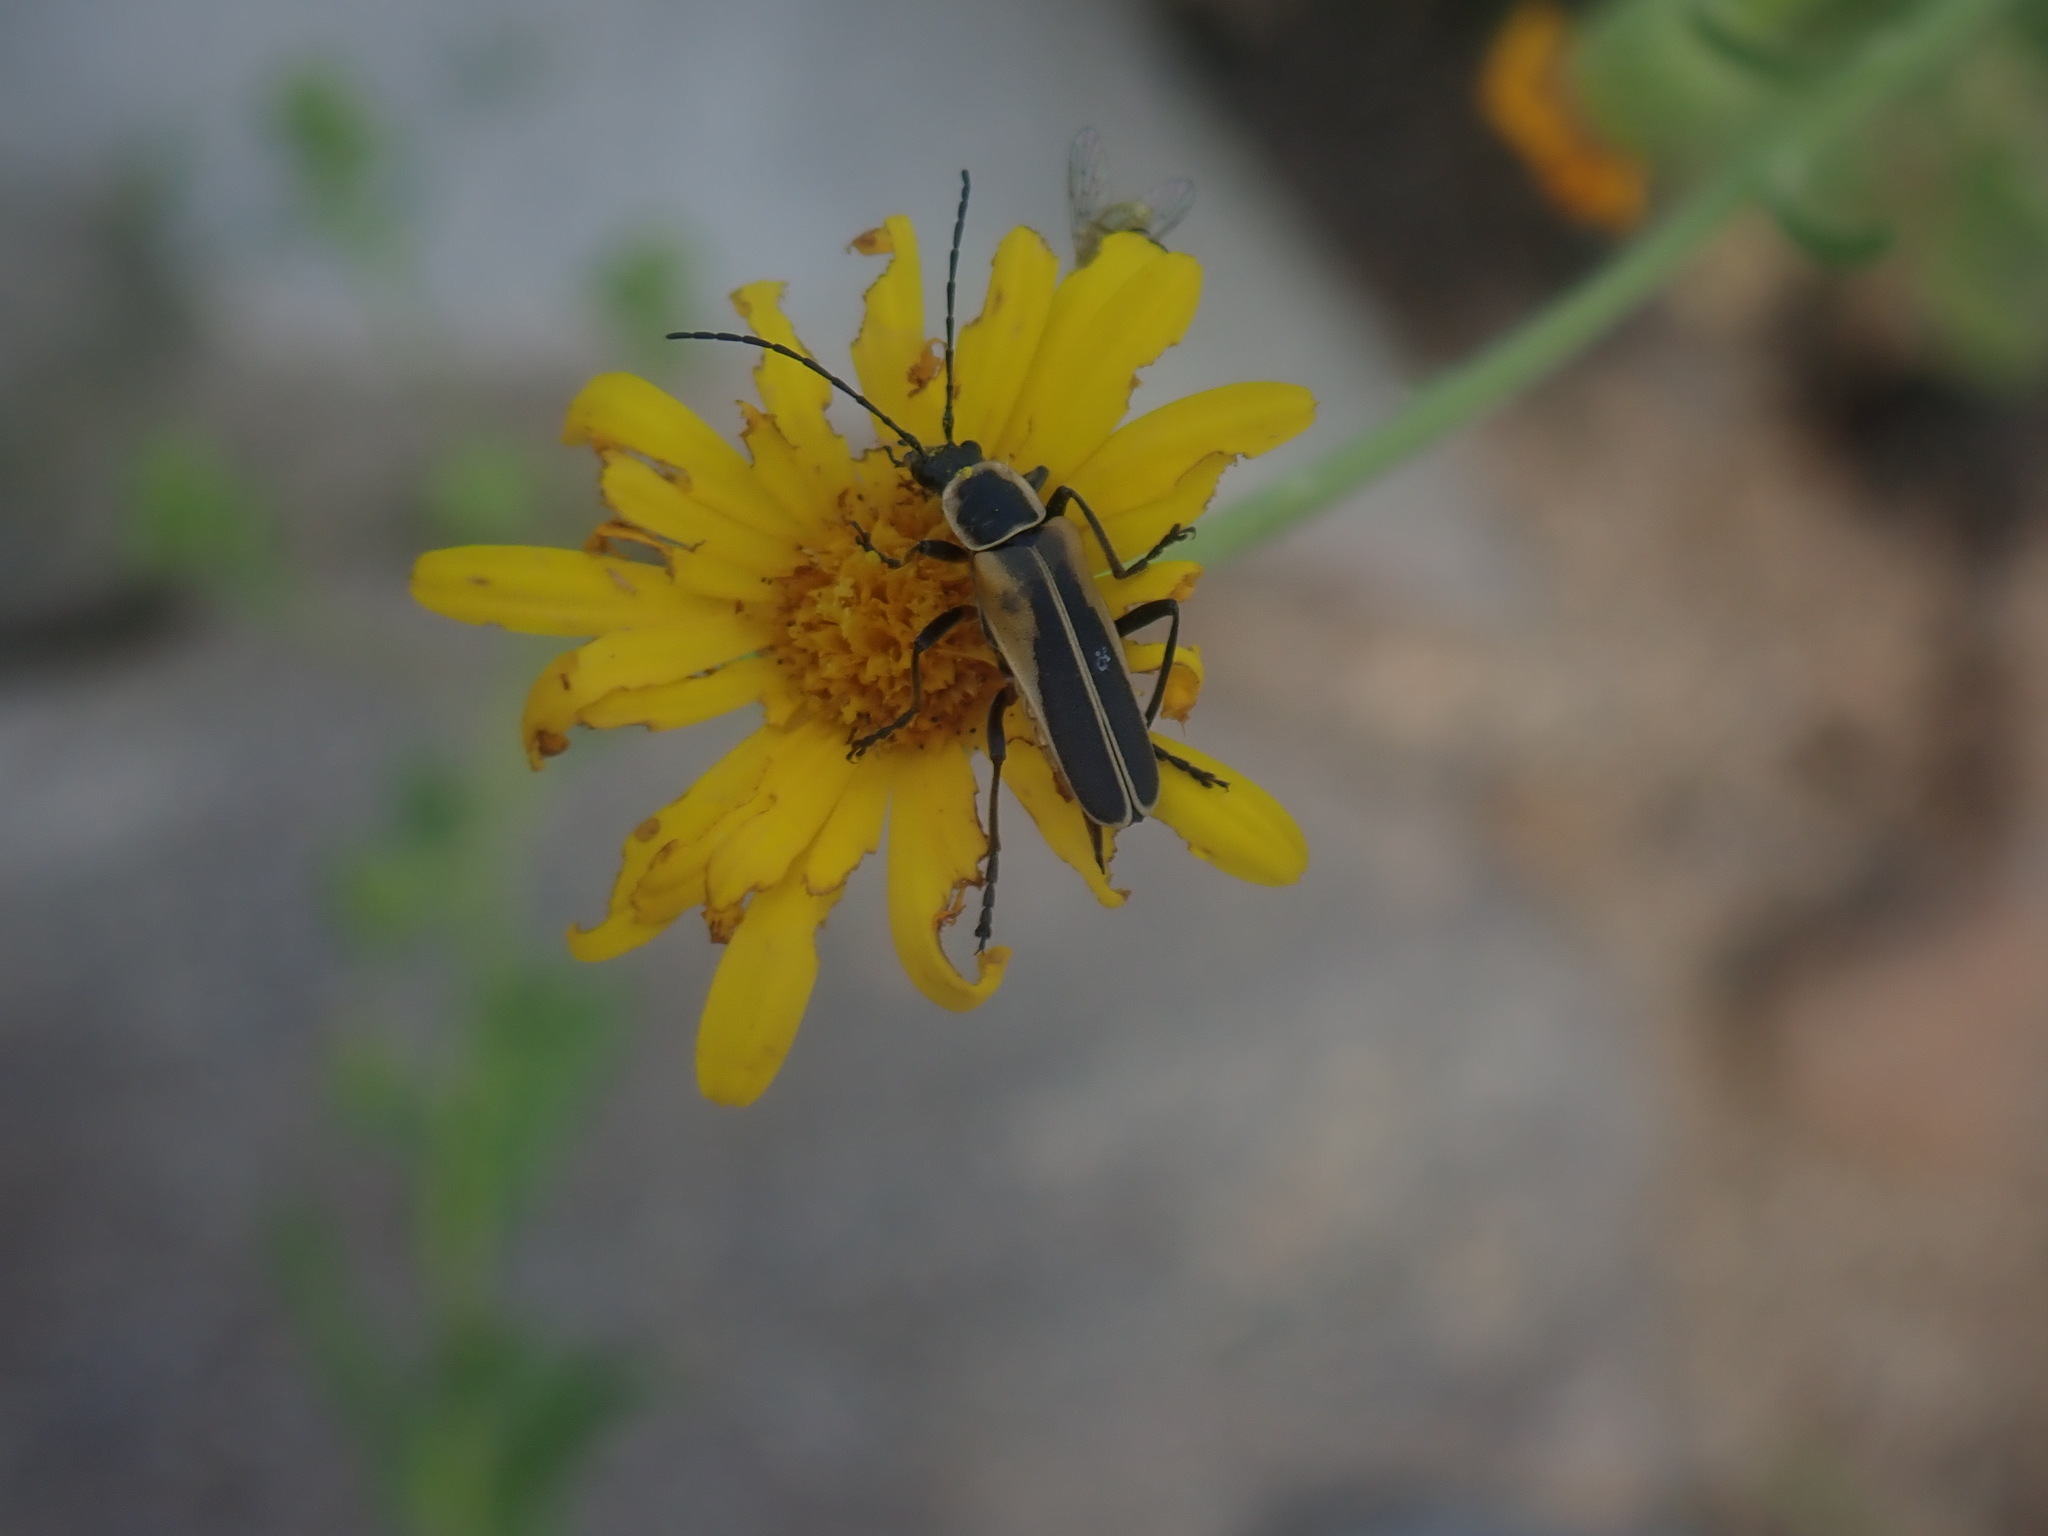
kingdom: Animalia
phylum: Arthropoda
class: Insecta
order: Coleoptera
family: Cantharidae
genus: Chauliognathus
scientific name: Chauliognathus opacus
